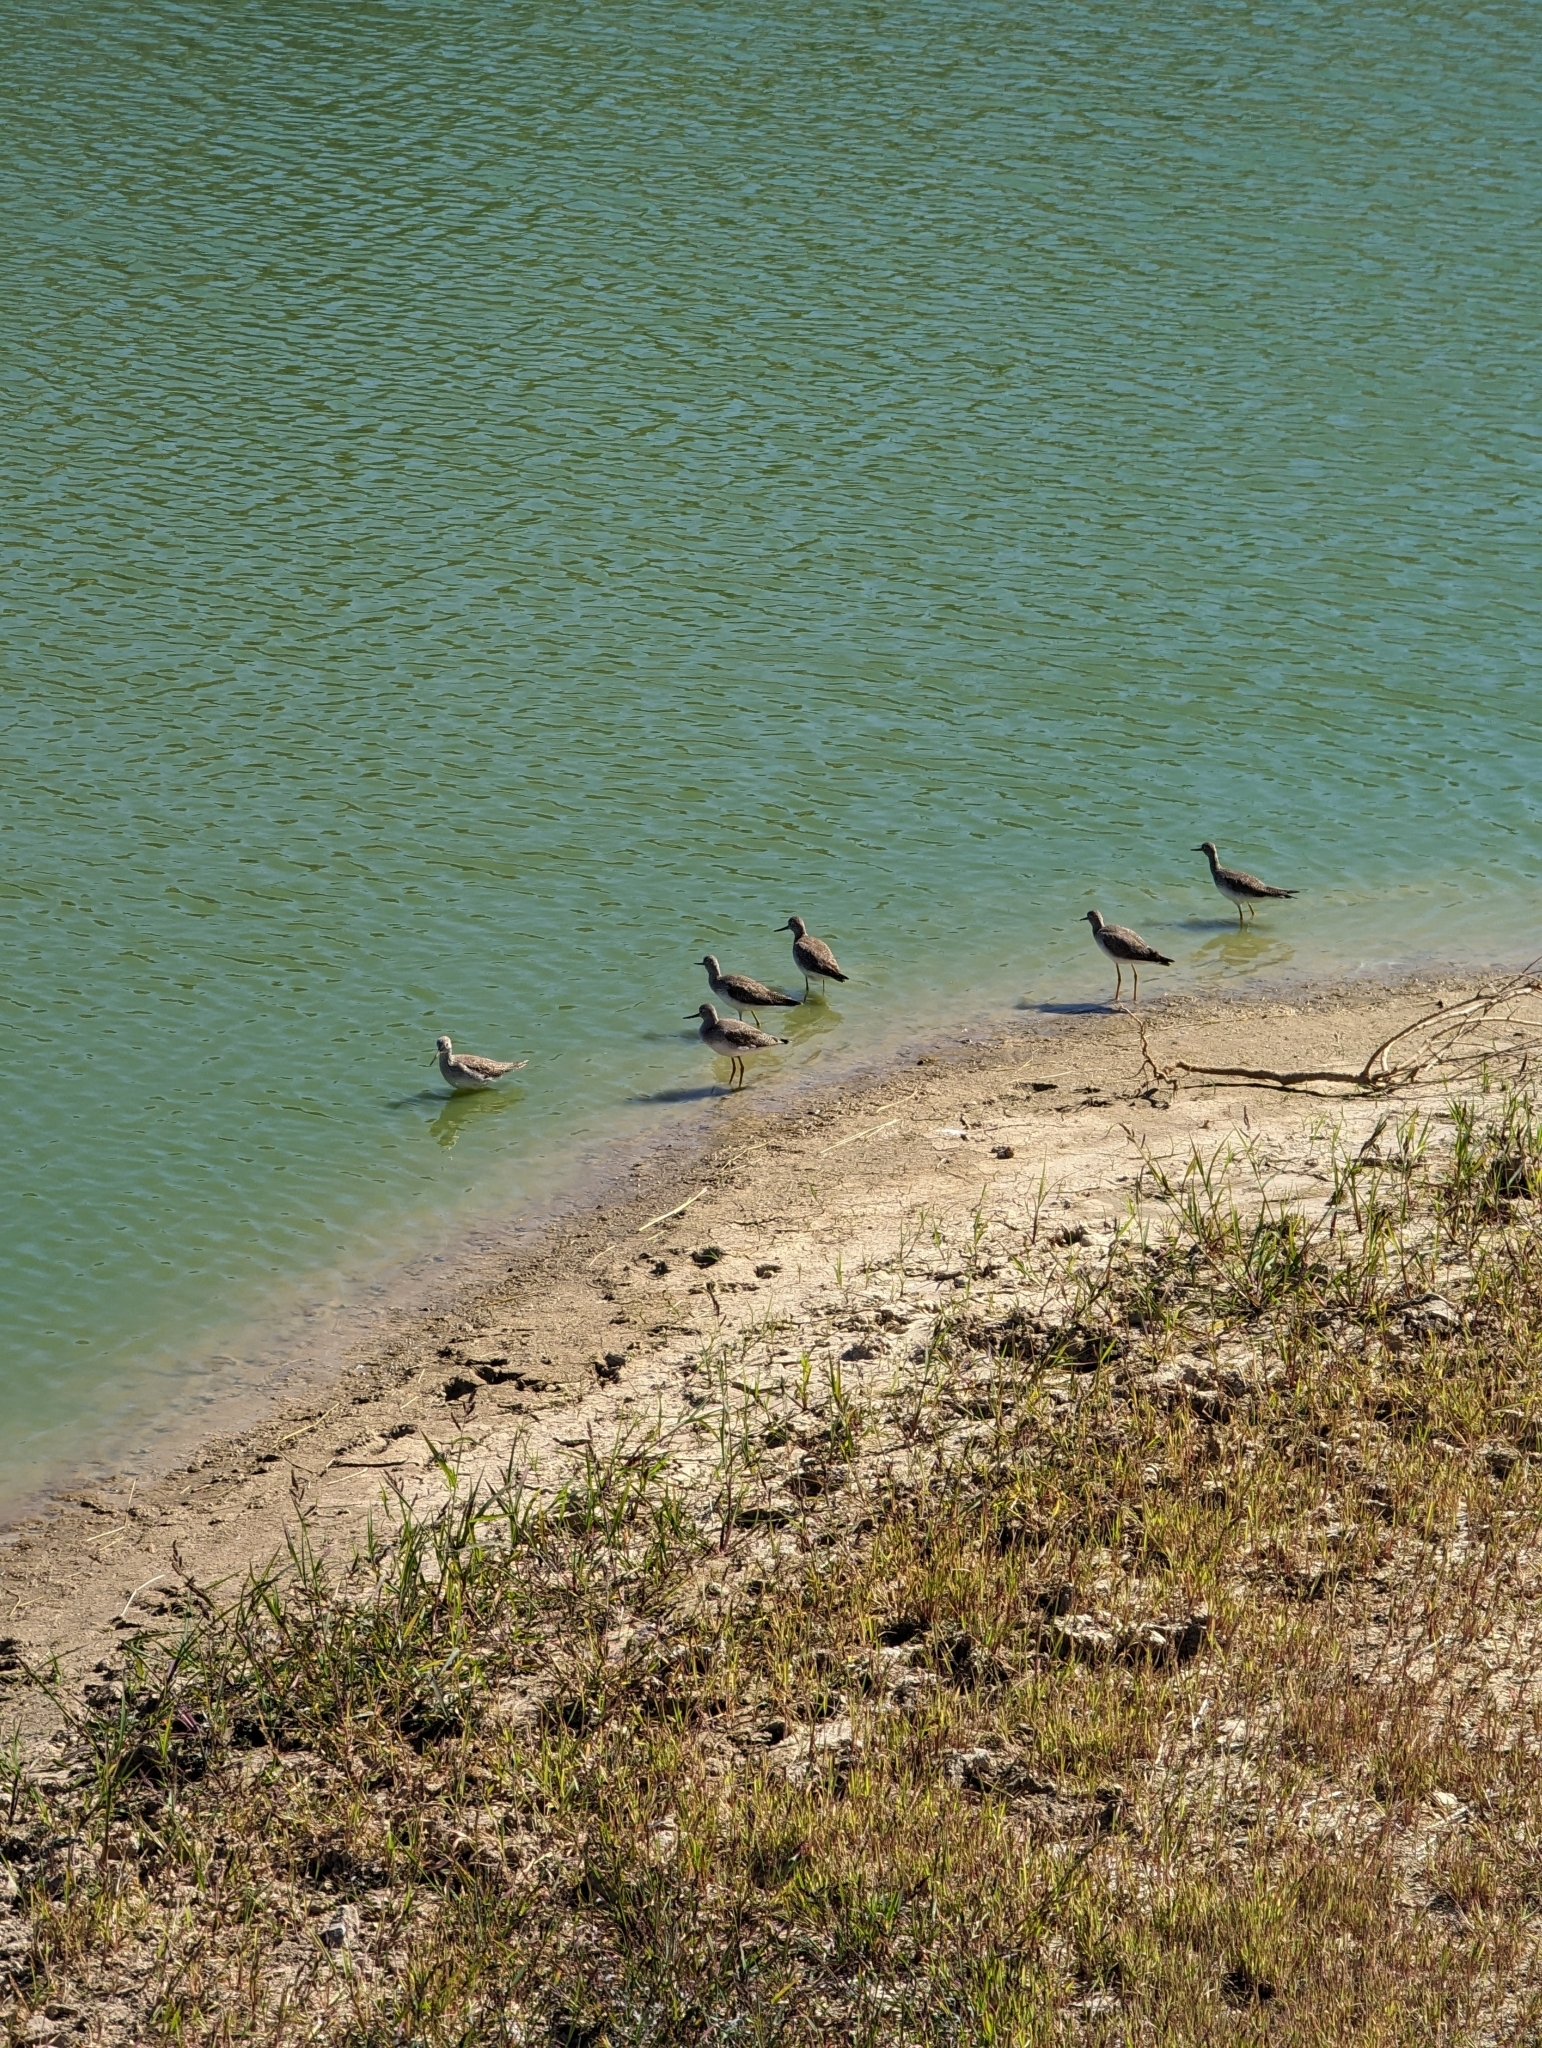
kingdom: Animalia
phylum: Chordata
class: Aves
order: Charadriiformes
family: Scolopacidae
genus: Tringa
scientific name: Tringa melanoleuca
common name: Greater yellowlegs
